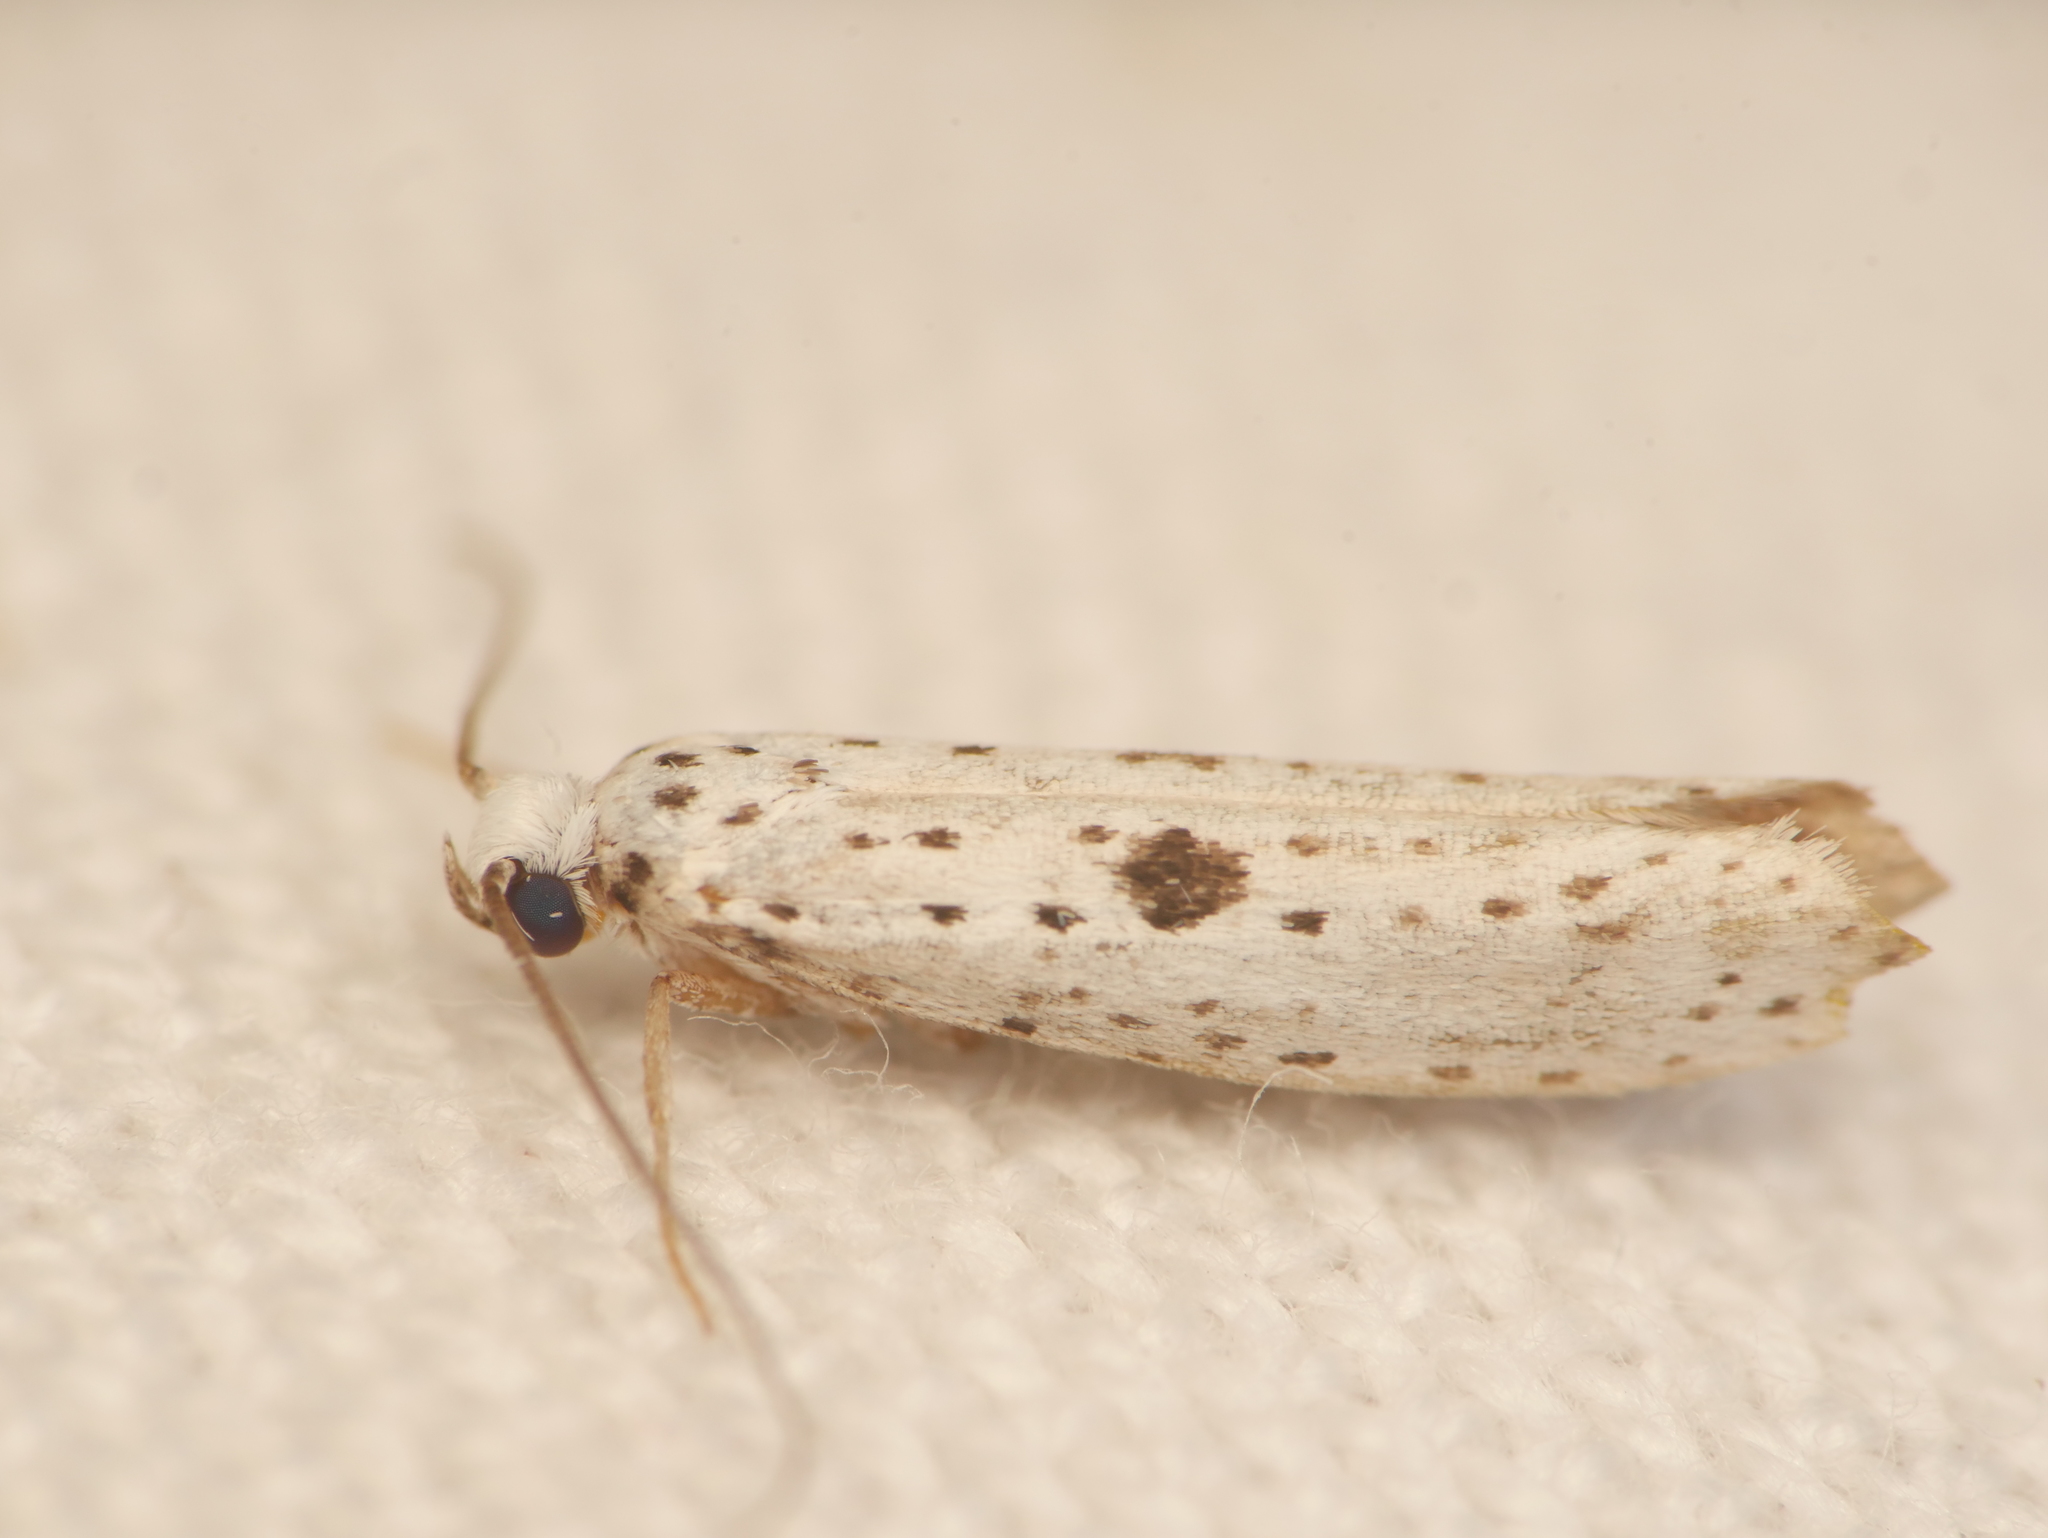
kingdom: Animalia
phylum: Arthropoda
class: Insecta
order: Lepidoptera
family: Yponomeutidae
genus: Yponomeuta
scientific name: Yponomeuta plumbella
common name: Black-tipped ermine
